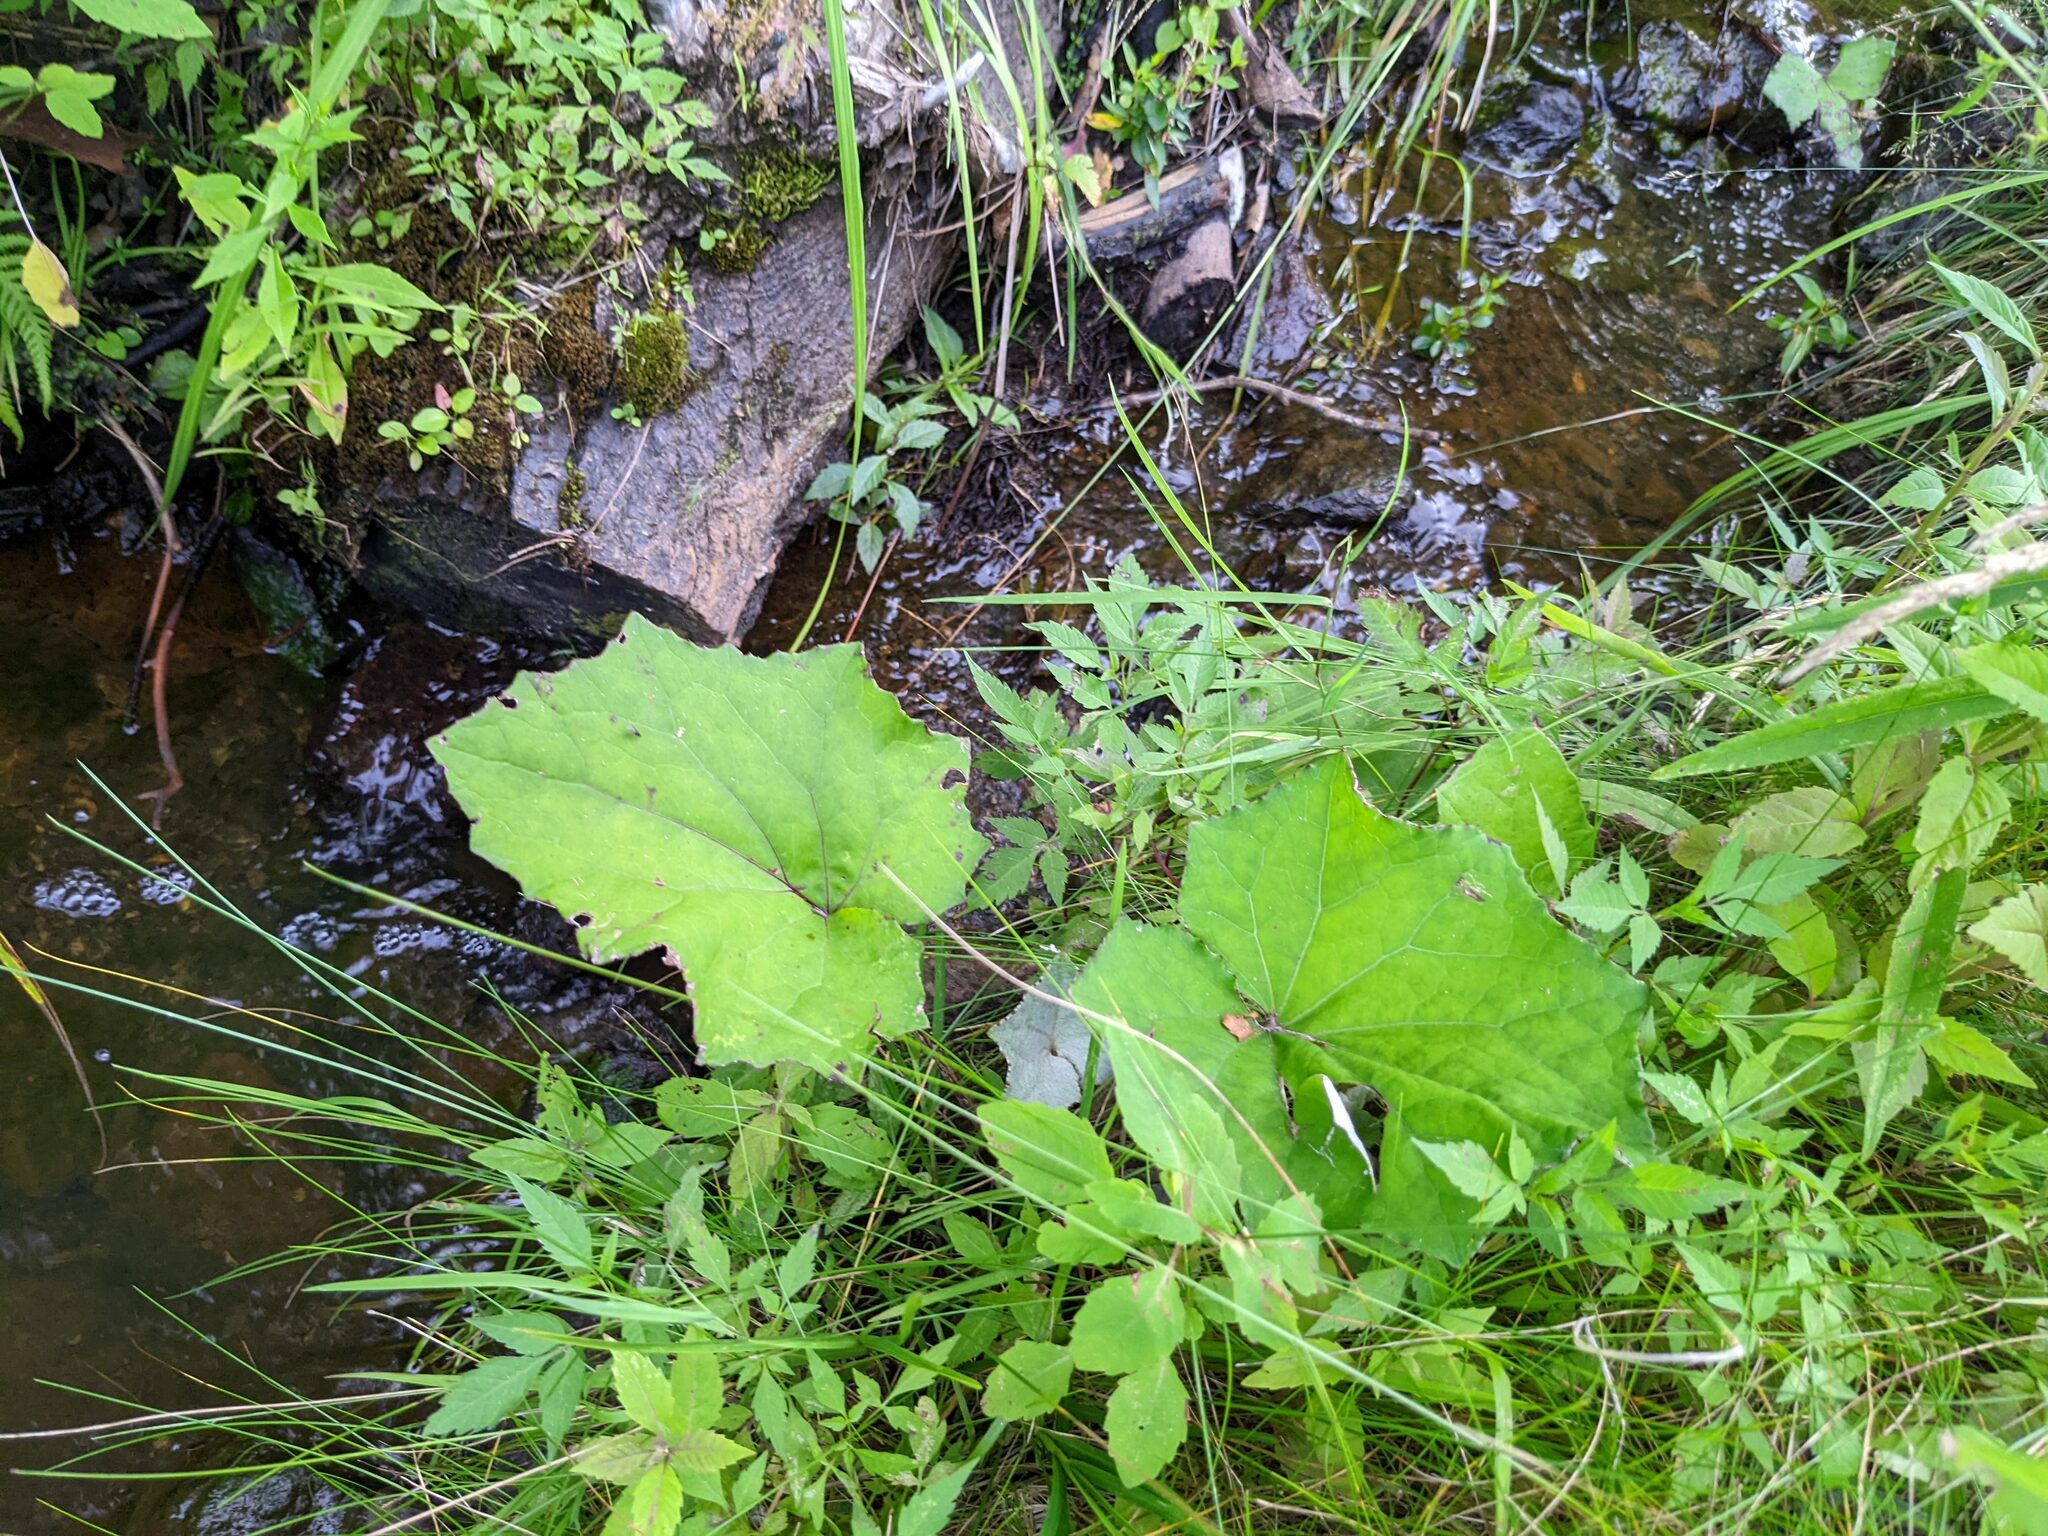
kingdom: Plantae
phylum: Tracheophyta
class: Magnoliopsida
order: Asterales
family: Asteraceae
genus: Tussilago
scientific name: Tussilago farfara
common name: Coltsfoot
